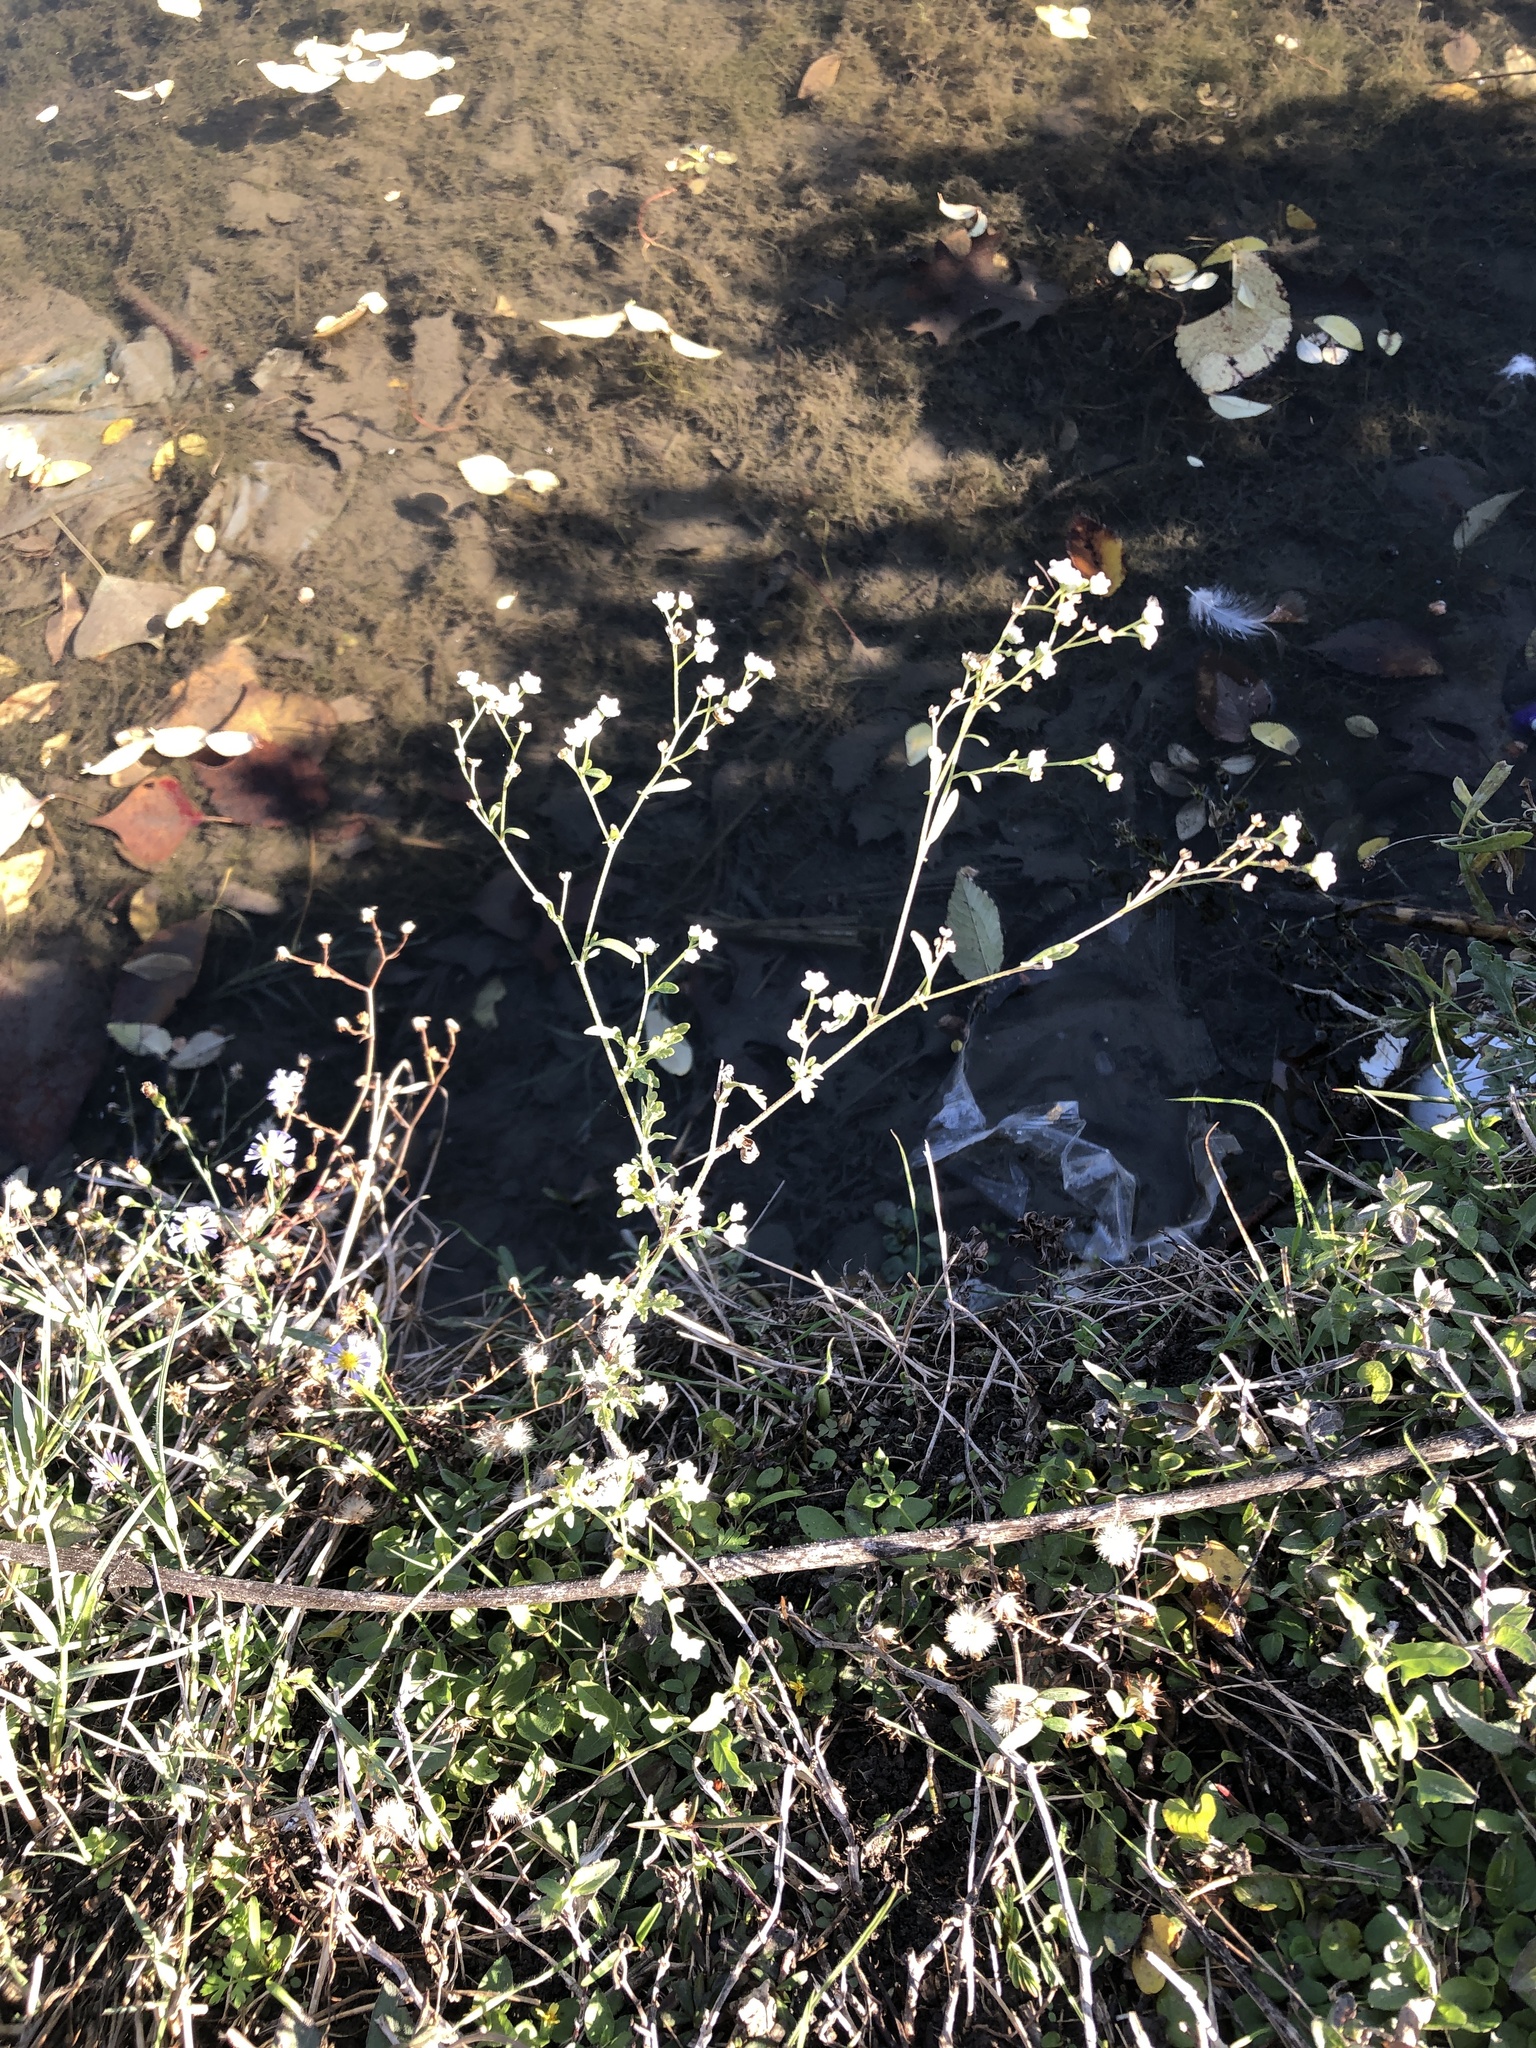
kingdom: Plantae
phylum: Tracheophyta
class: Magnoliopsida
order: Asterales
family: Asteraceae
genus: Parthenium
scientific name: Parthenium hysterophorus
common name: Santa maria feverfew
